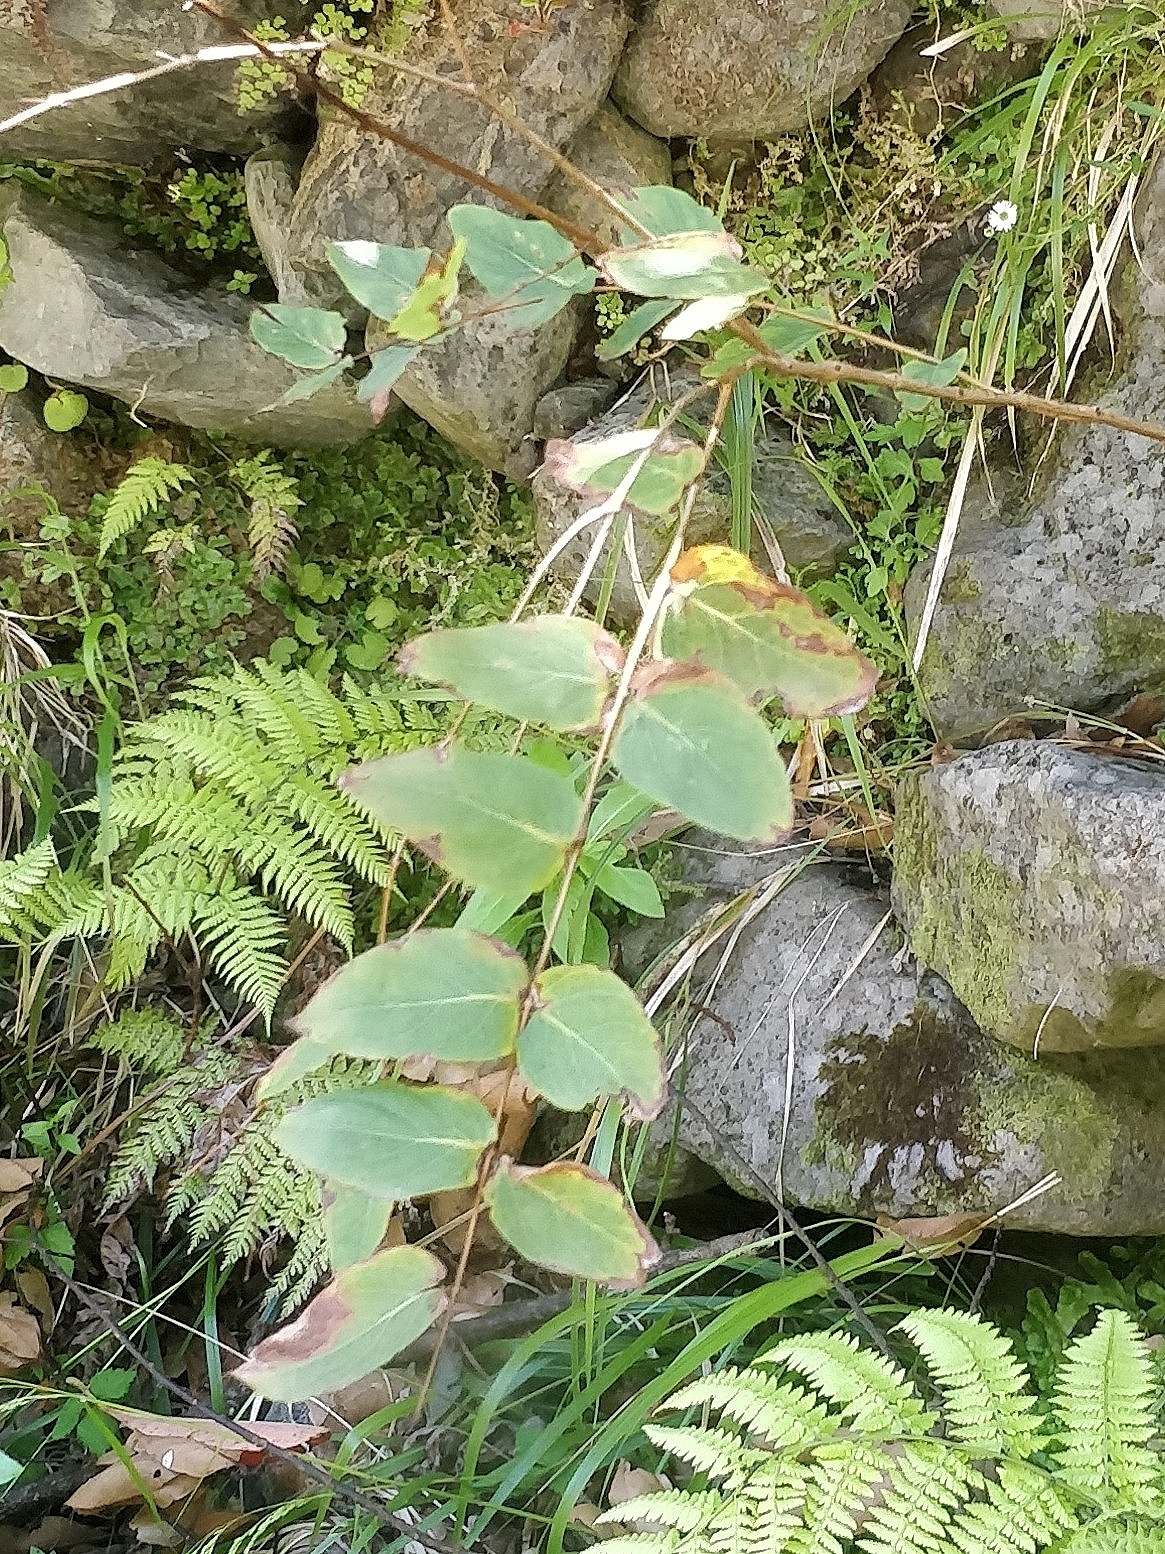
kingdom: Plantae
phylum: Tracheophyta
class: Magnoliopsida
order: Malpighiales
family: Hypericaceae
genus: Hypericum
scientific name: Hypericum grandifolium
